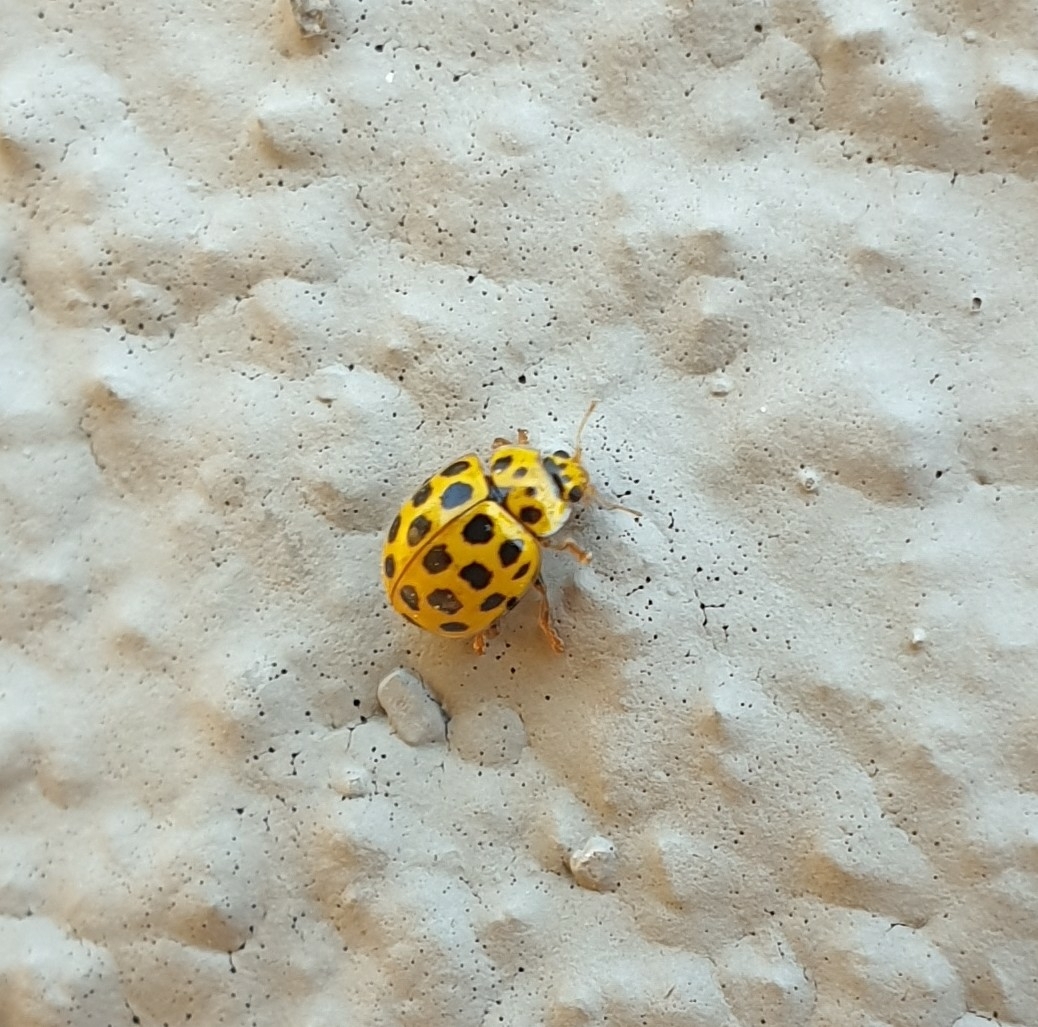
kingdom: Animalia
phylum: Arthropoda
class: Insecta
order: Coleoptera
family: Coccinellidae
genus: Psyllobora
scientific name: Psyllobora vigintiduopunctata
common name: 22-spot ladybird
